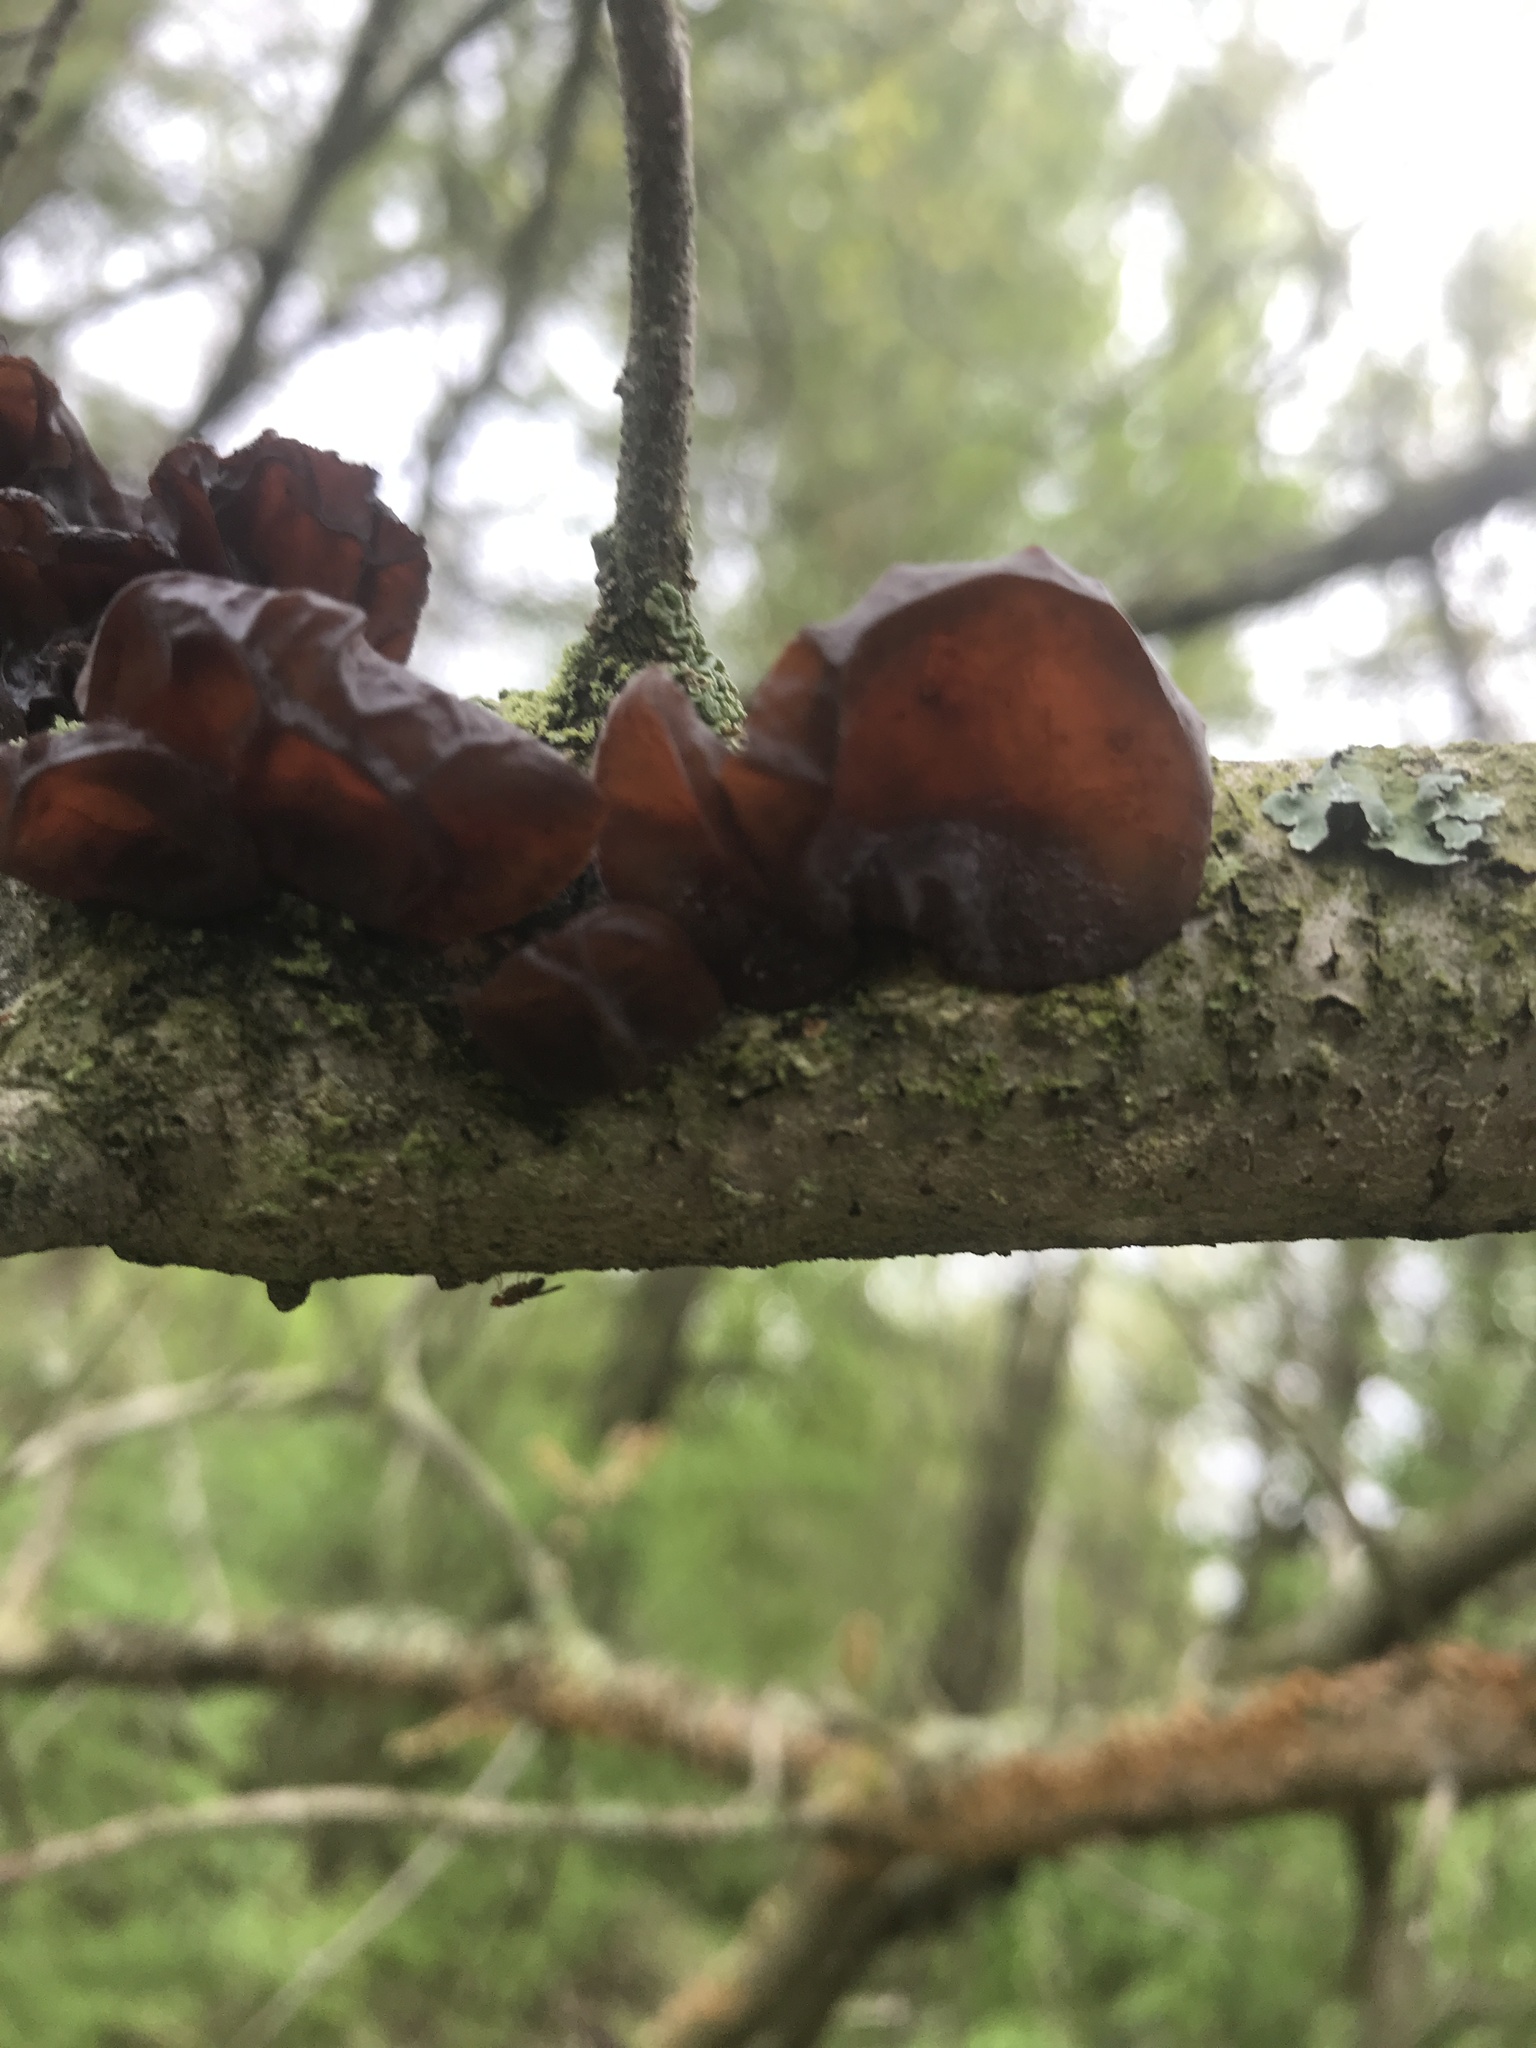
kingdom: Fungi
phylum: Basidiomycota
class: Agaricomycetes
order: Auriculariales
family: Auriculariaceae
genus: Exidia
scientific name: Exidia
